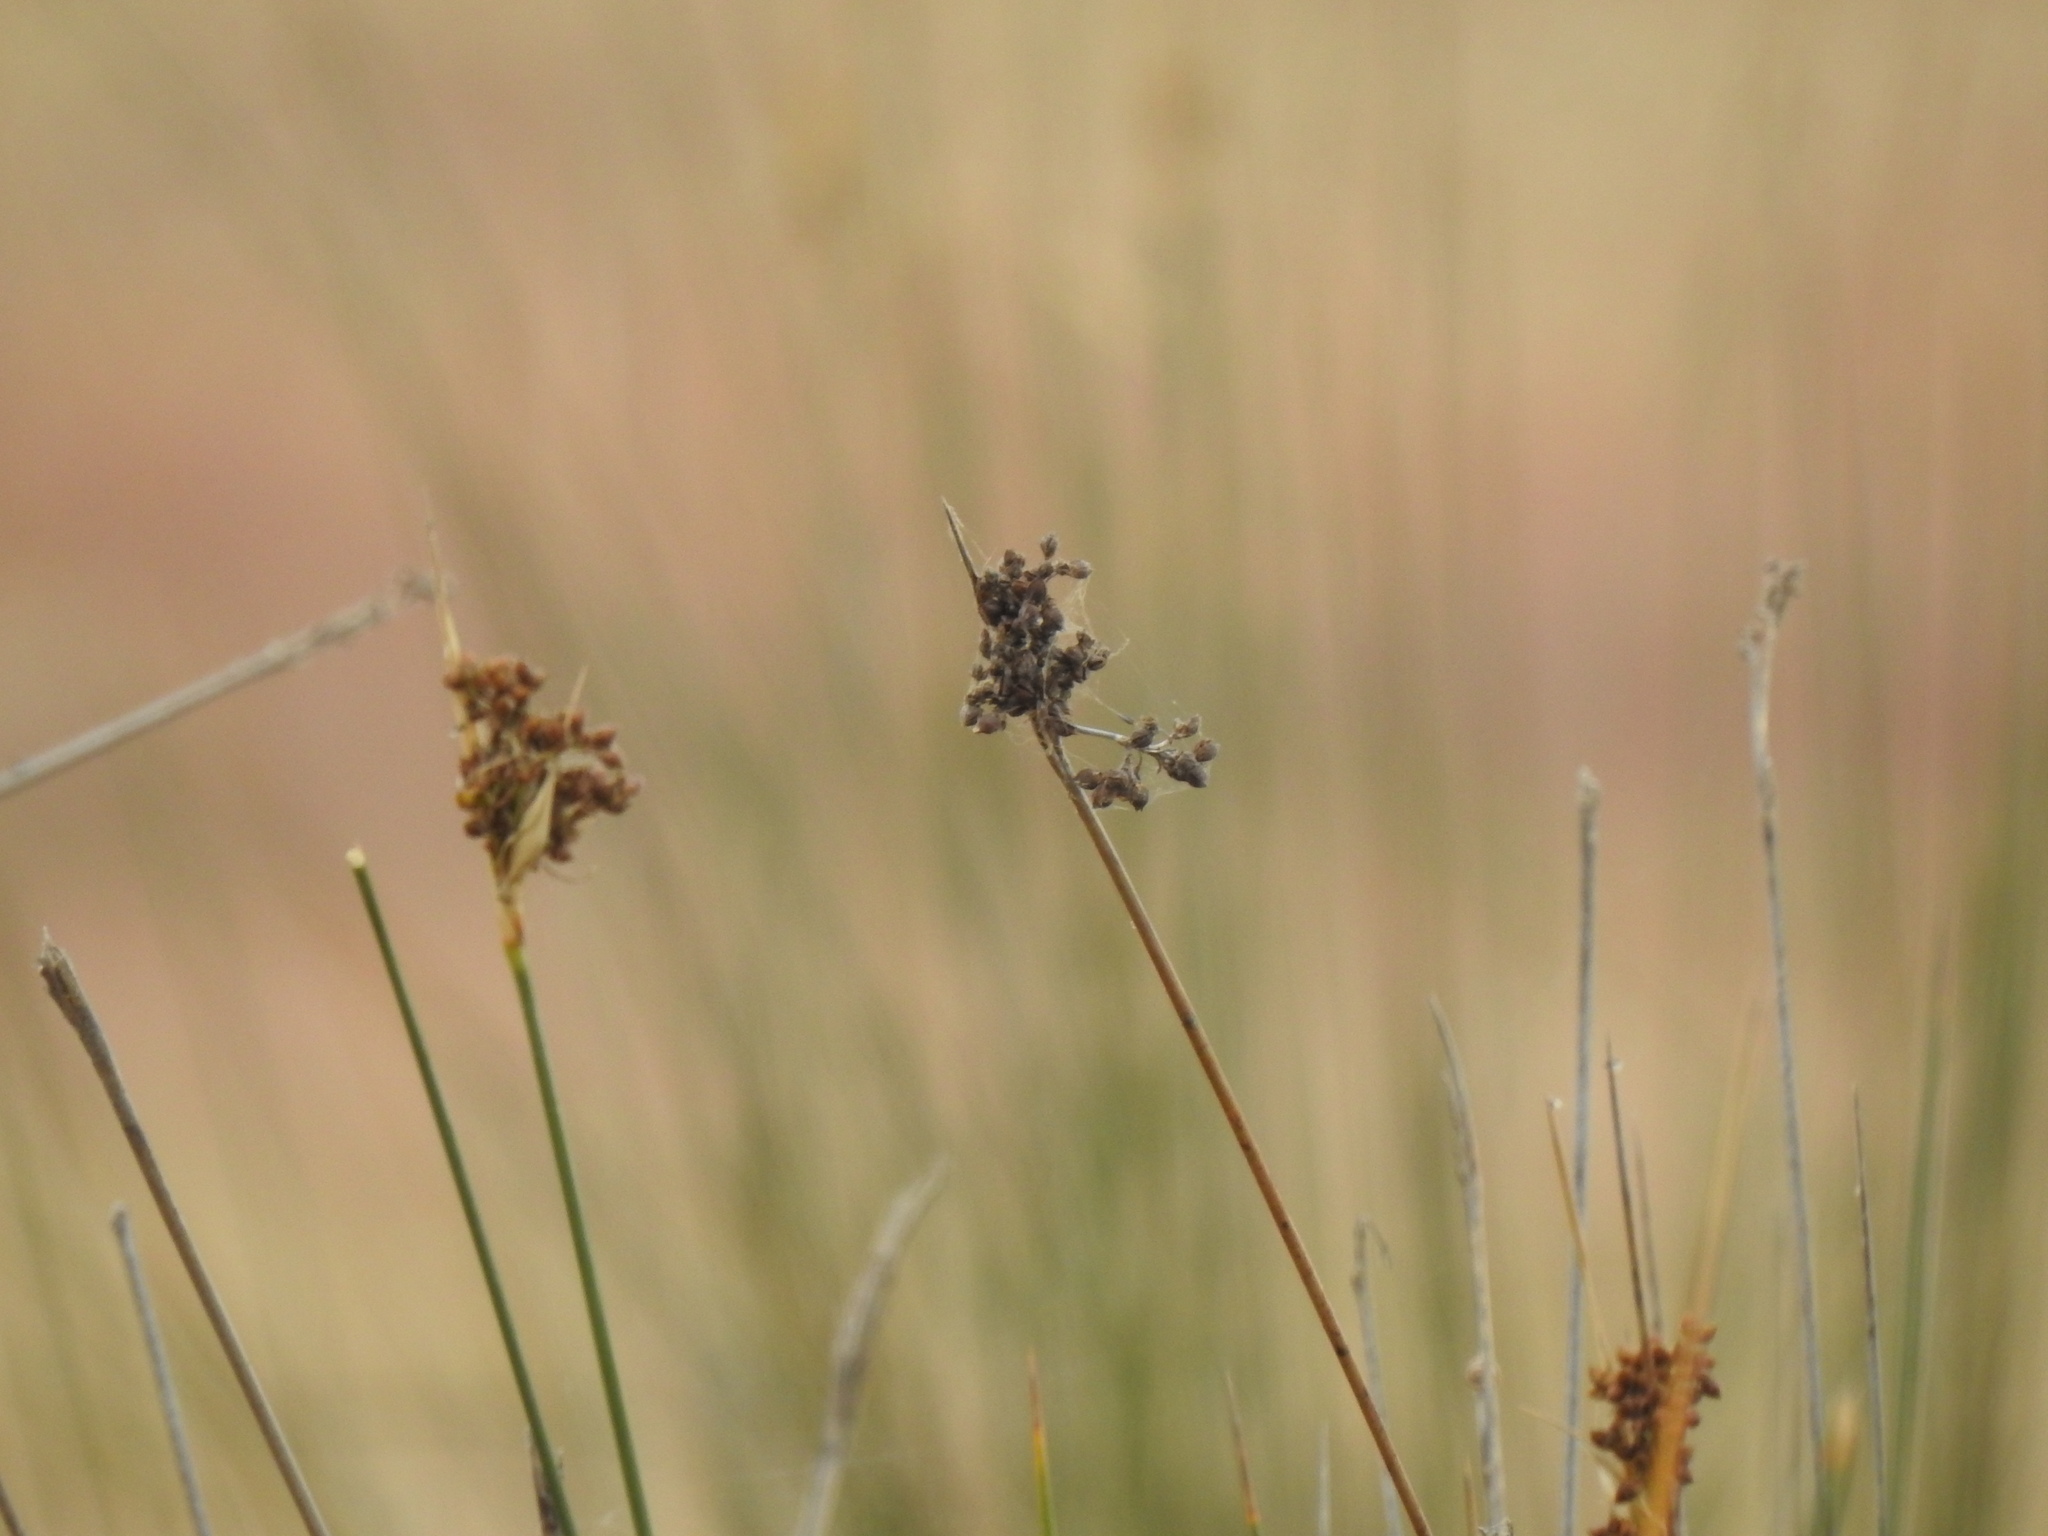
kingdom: Plantae
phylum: Tracheophyta
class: Liliopsida
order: Poales
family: Juncaceae
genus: Juncus
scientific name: Juncus acutus
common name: Sharp rush
